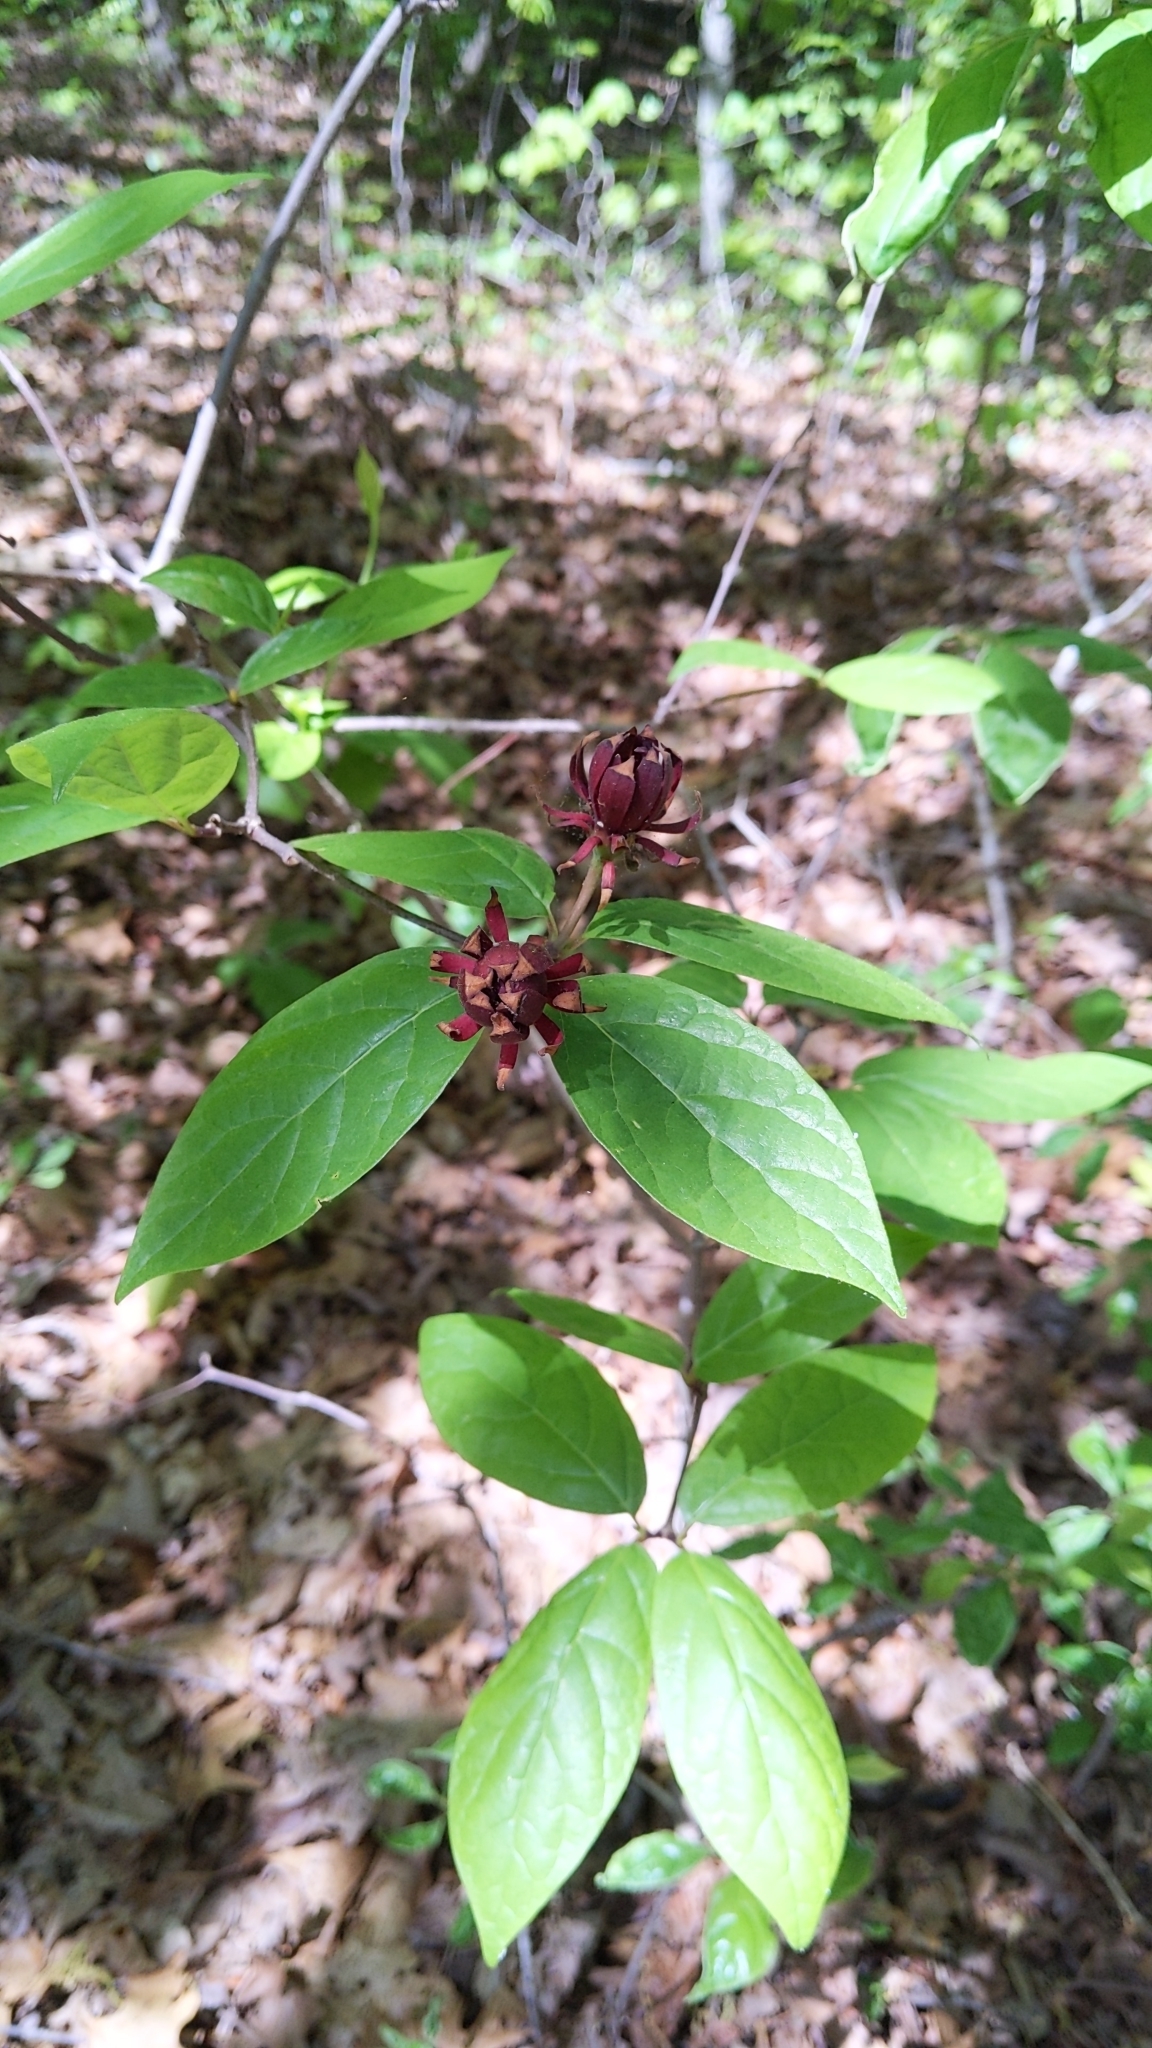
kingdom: Plantae
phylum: Tracheophyta
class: Magnoliopsida
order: Laurales
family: Calycanthaceae
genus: Calycanthus
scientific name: Calycanthus floridus
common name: Carolina-allspice
